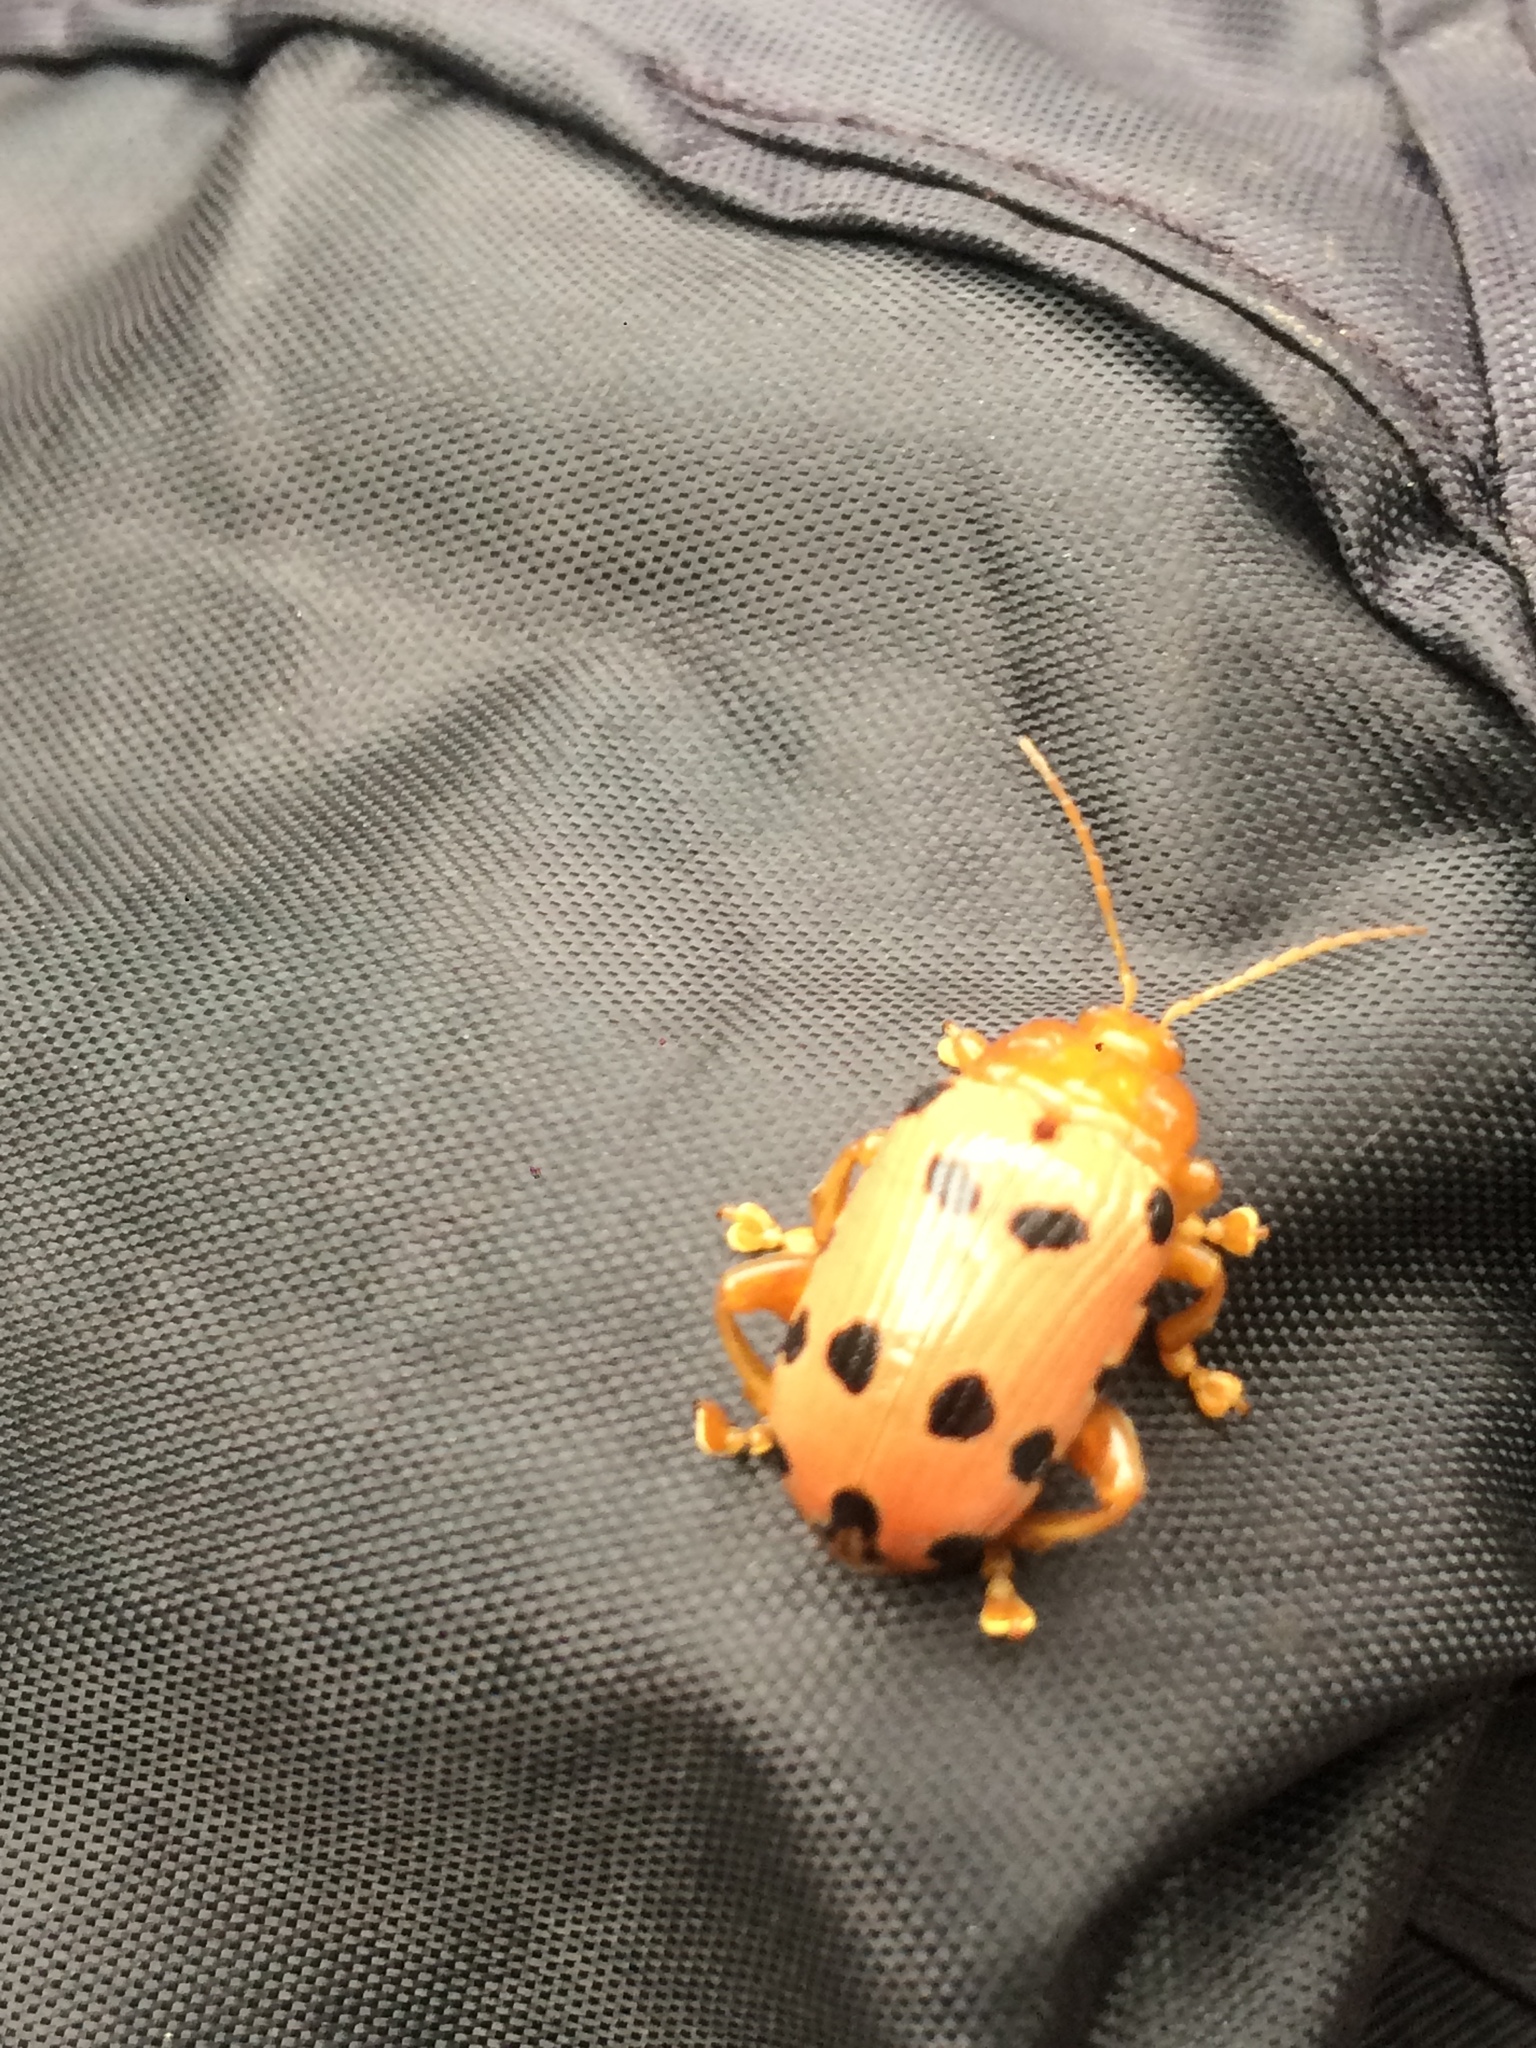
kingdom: Animalia
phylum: Arthropoda
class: Insecta
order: Coleoptera
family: Chrysomelidae
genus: Podontia
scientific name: Podontia
